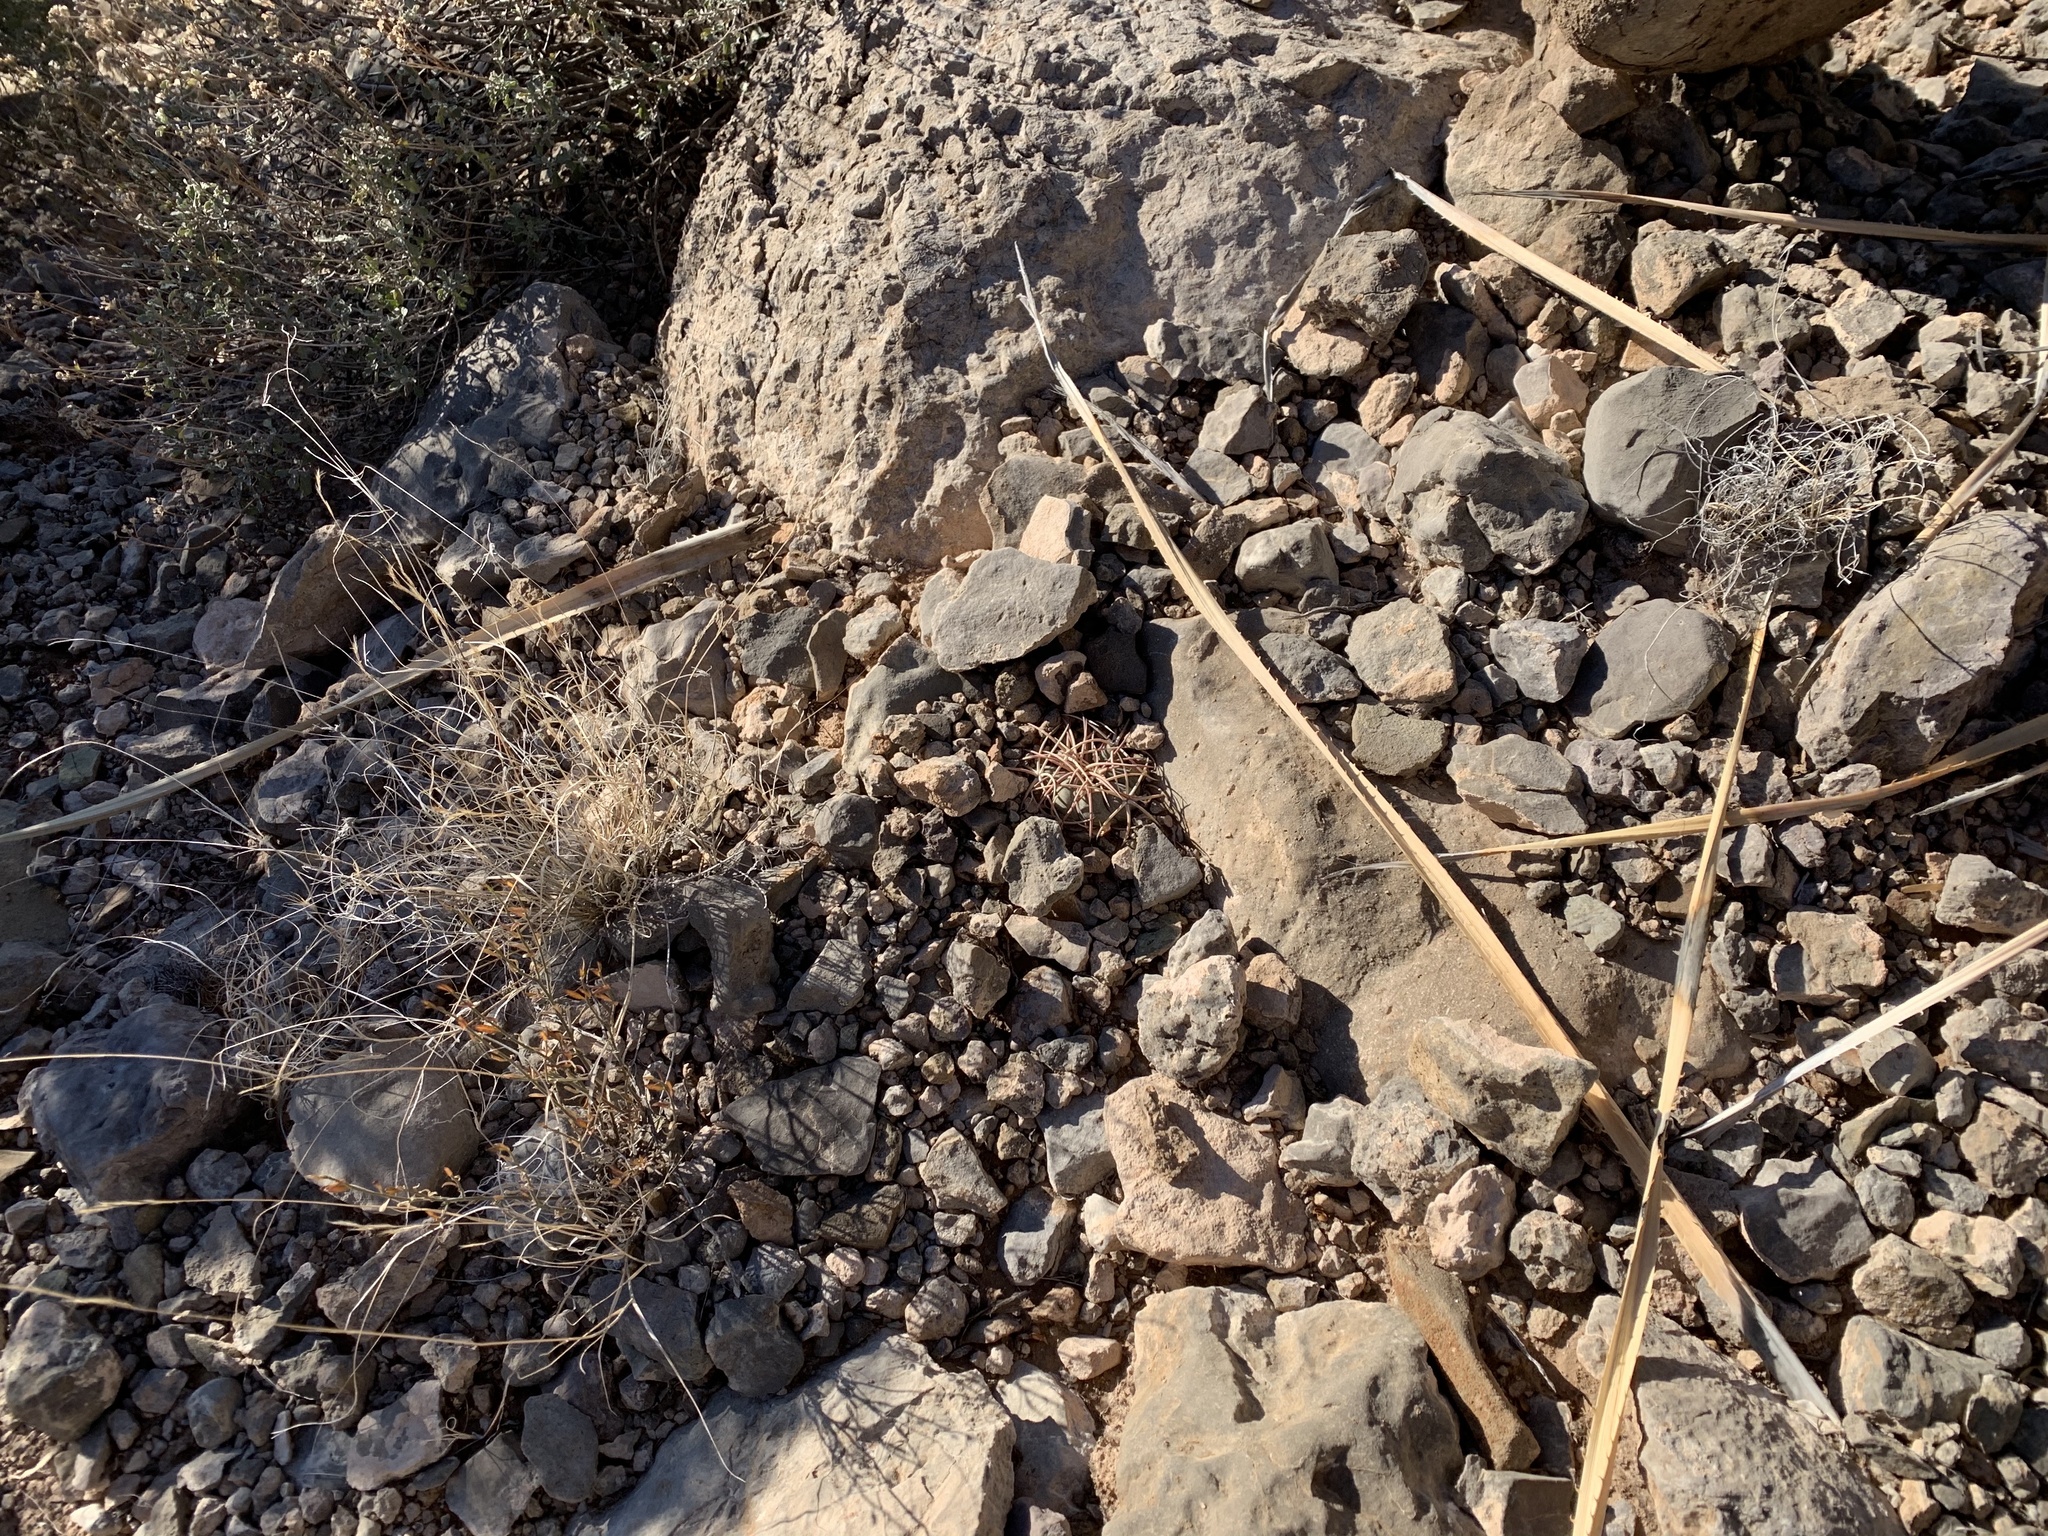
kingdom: Plantae
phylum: Tracheophyta
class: Magnoliopsida
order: Caryophyllales
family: Cactaceae
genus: Echinocactus
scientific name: Echinocactus horizonthalonius
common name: Devilshead
